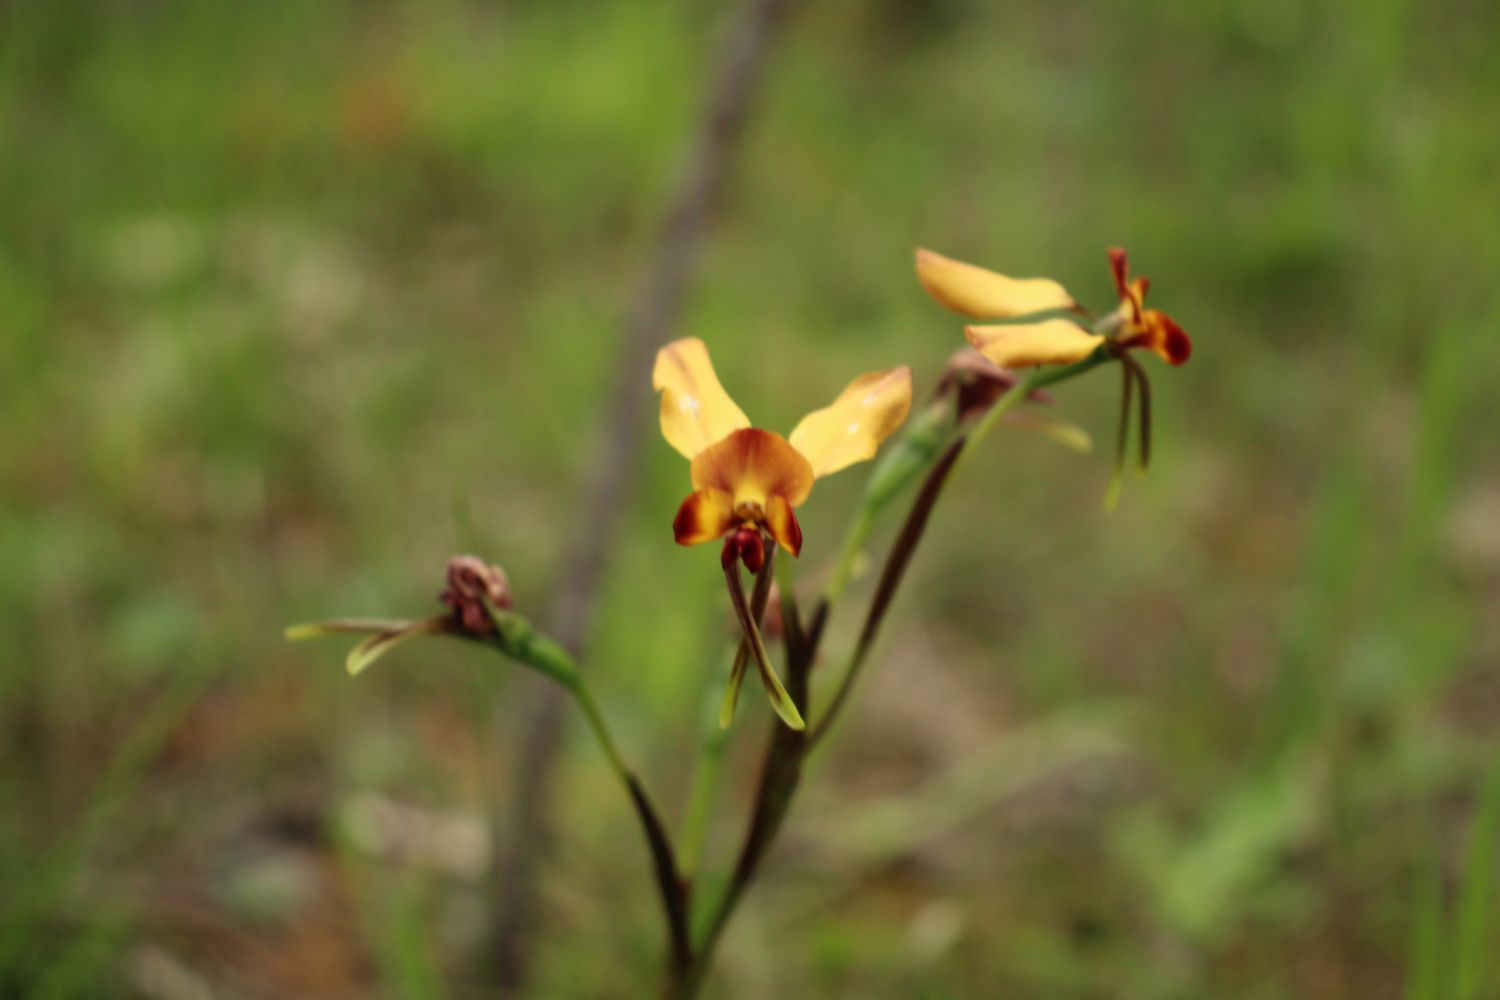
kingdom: Plantae
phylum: Tracheophyta
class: Liliopsida
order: Asparagales
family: Orchidaceae
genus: Diuris
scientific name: Diuris porrifolia
